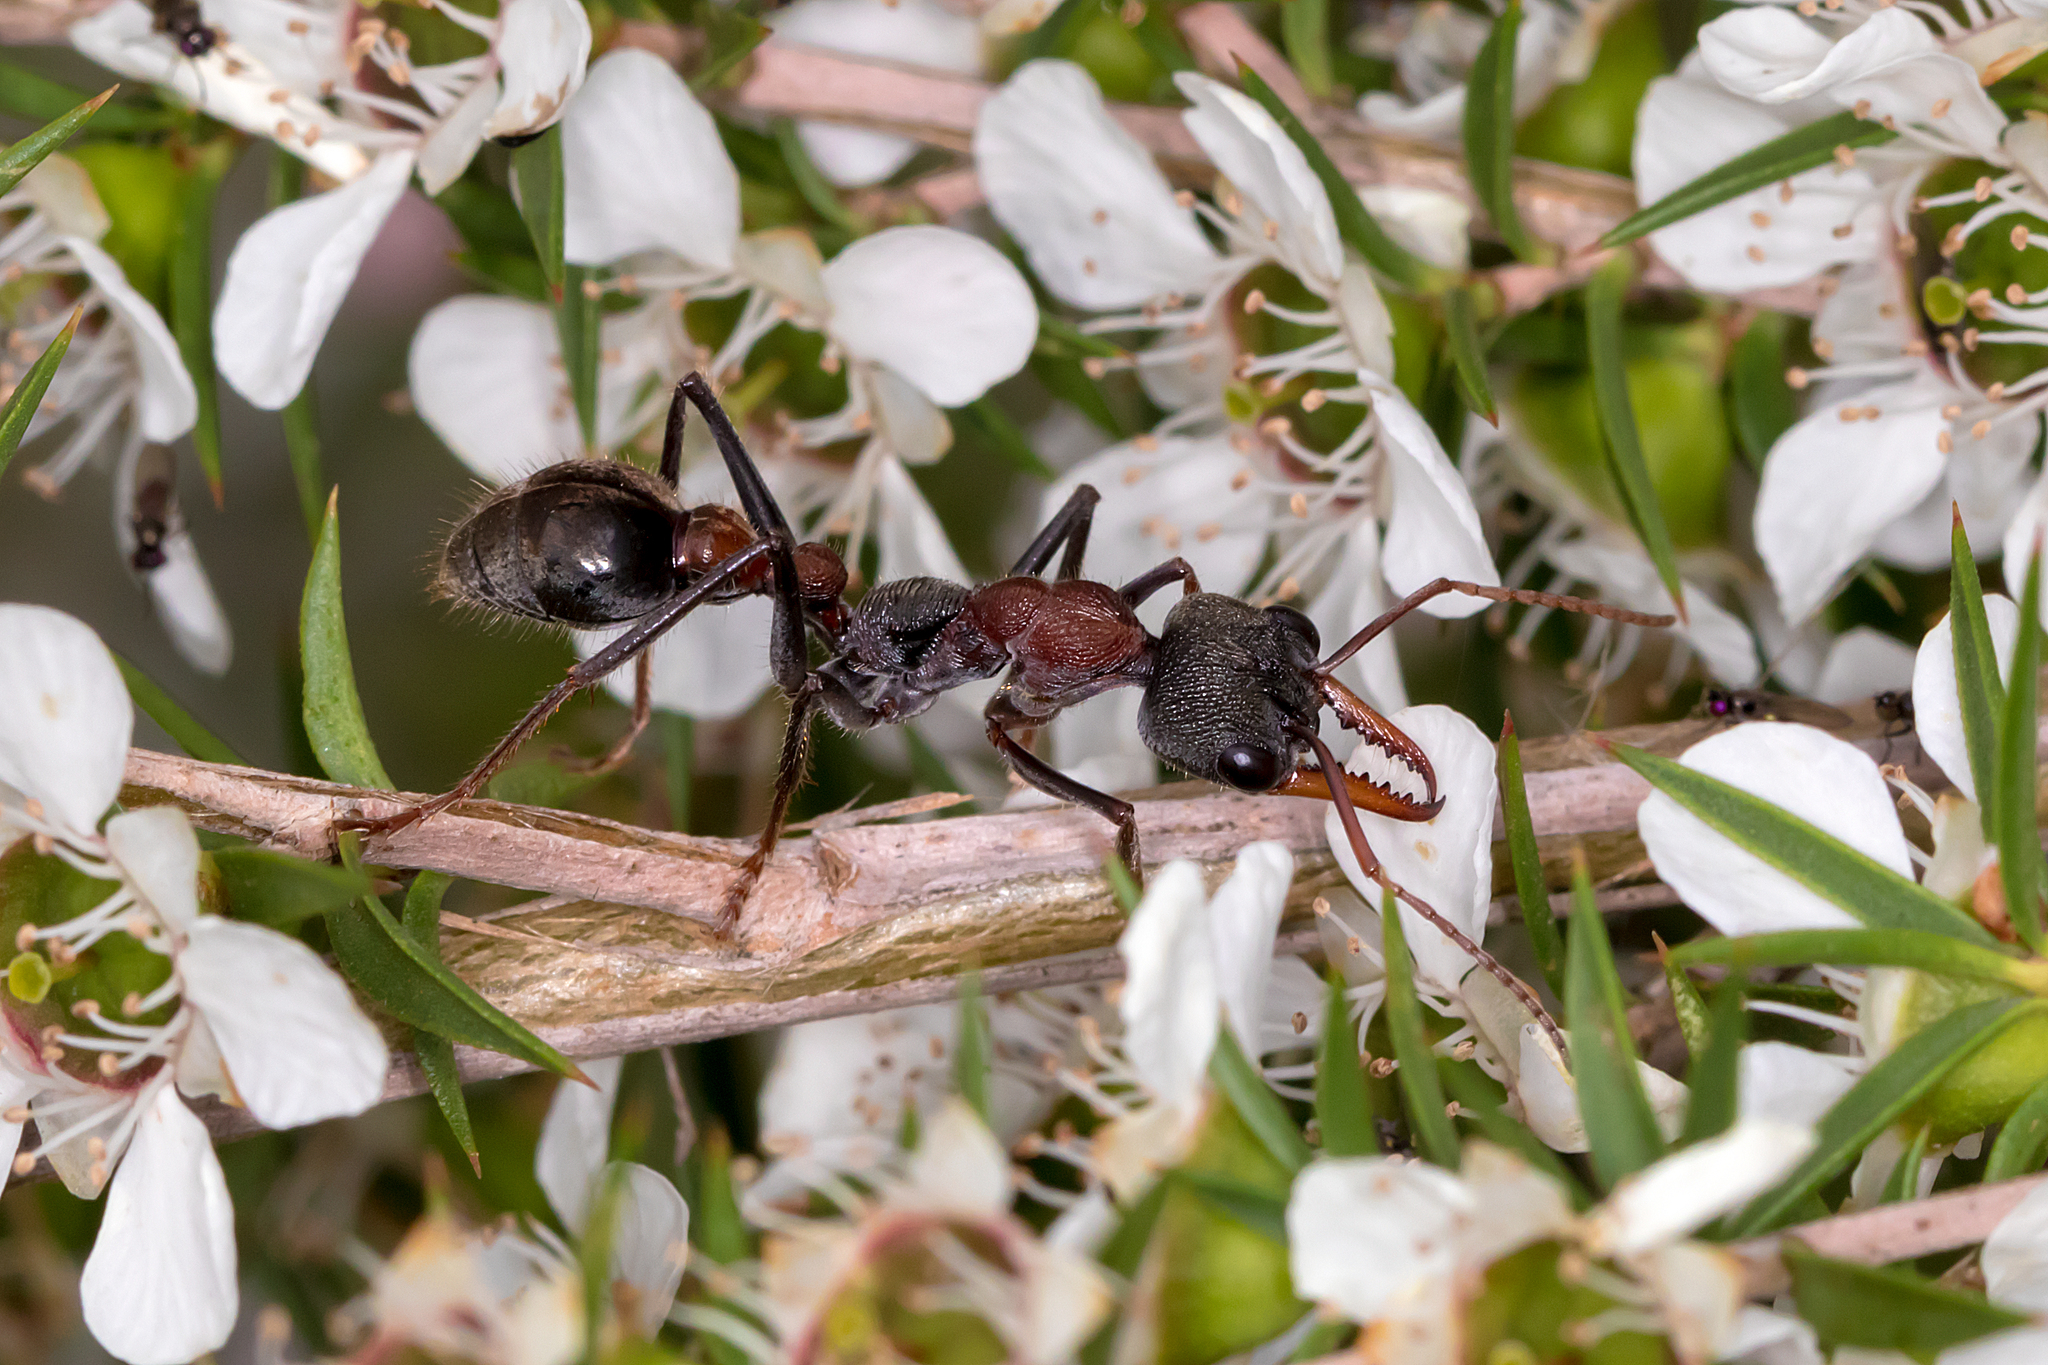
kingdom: Animalia
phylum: Arthropoda
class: Insecta
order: Hymenoptera
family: Formicidae
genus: Myrmecia
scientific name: Myrmecia pulchra
